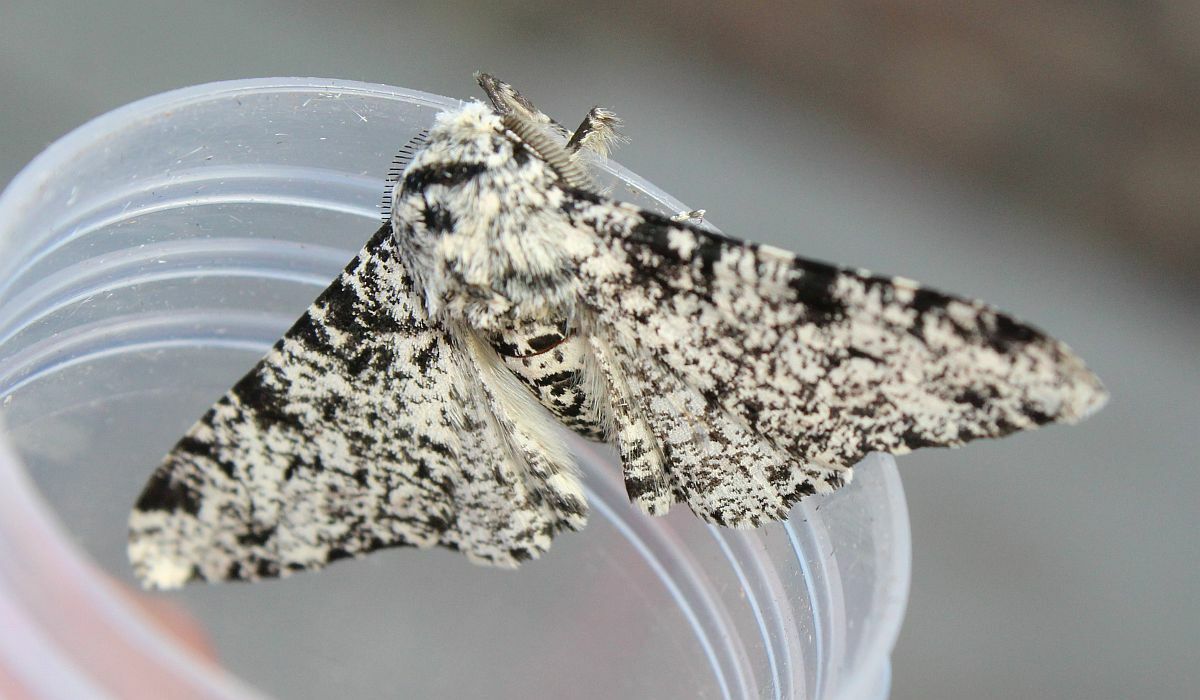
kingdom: Animalia
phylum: Arthropoda
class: Insecta
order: Lepidoptera
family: Geometridae
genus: Biston
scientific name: Biston betularia
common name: Peppered moth
